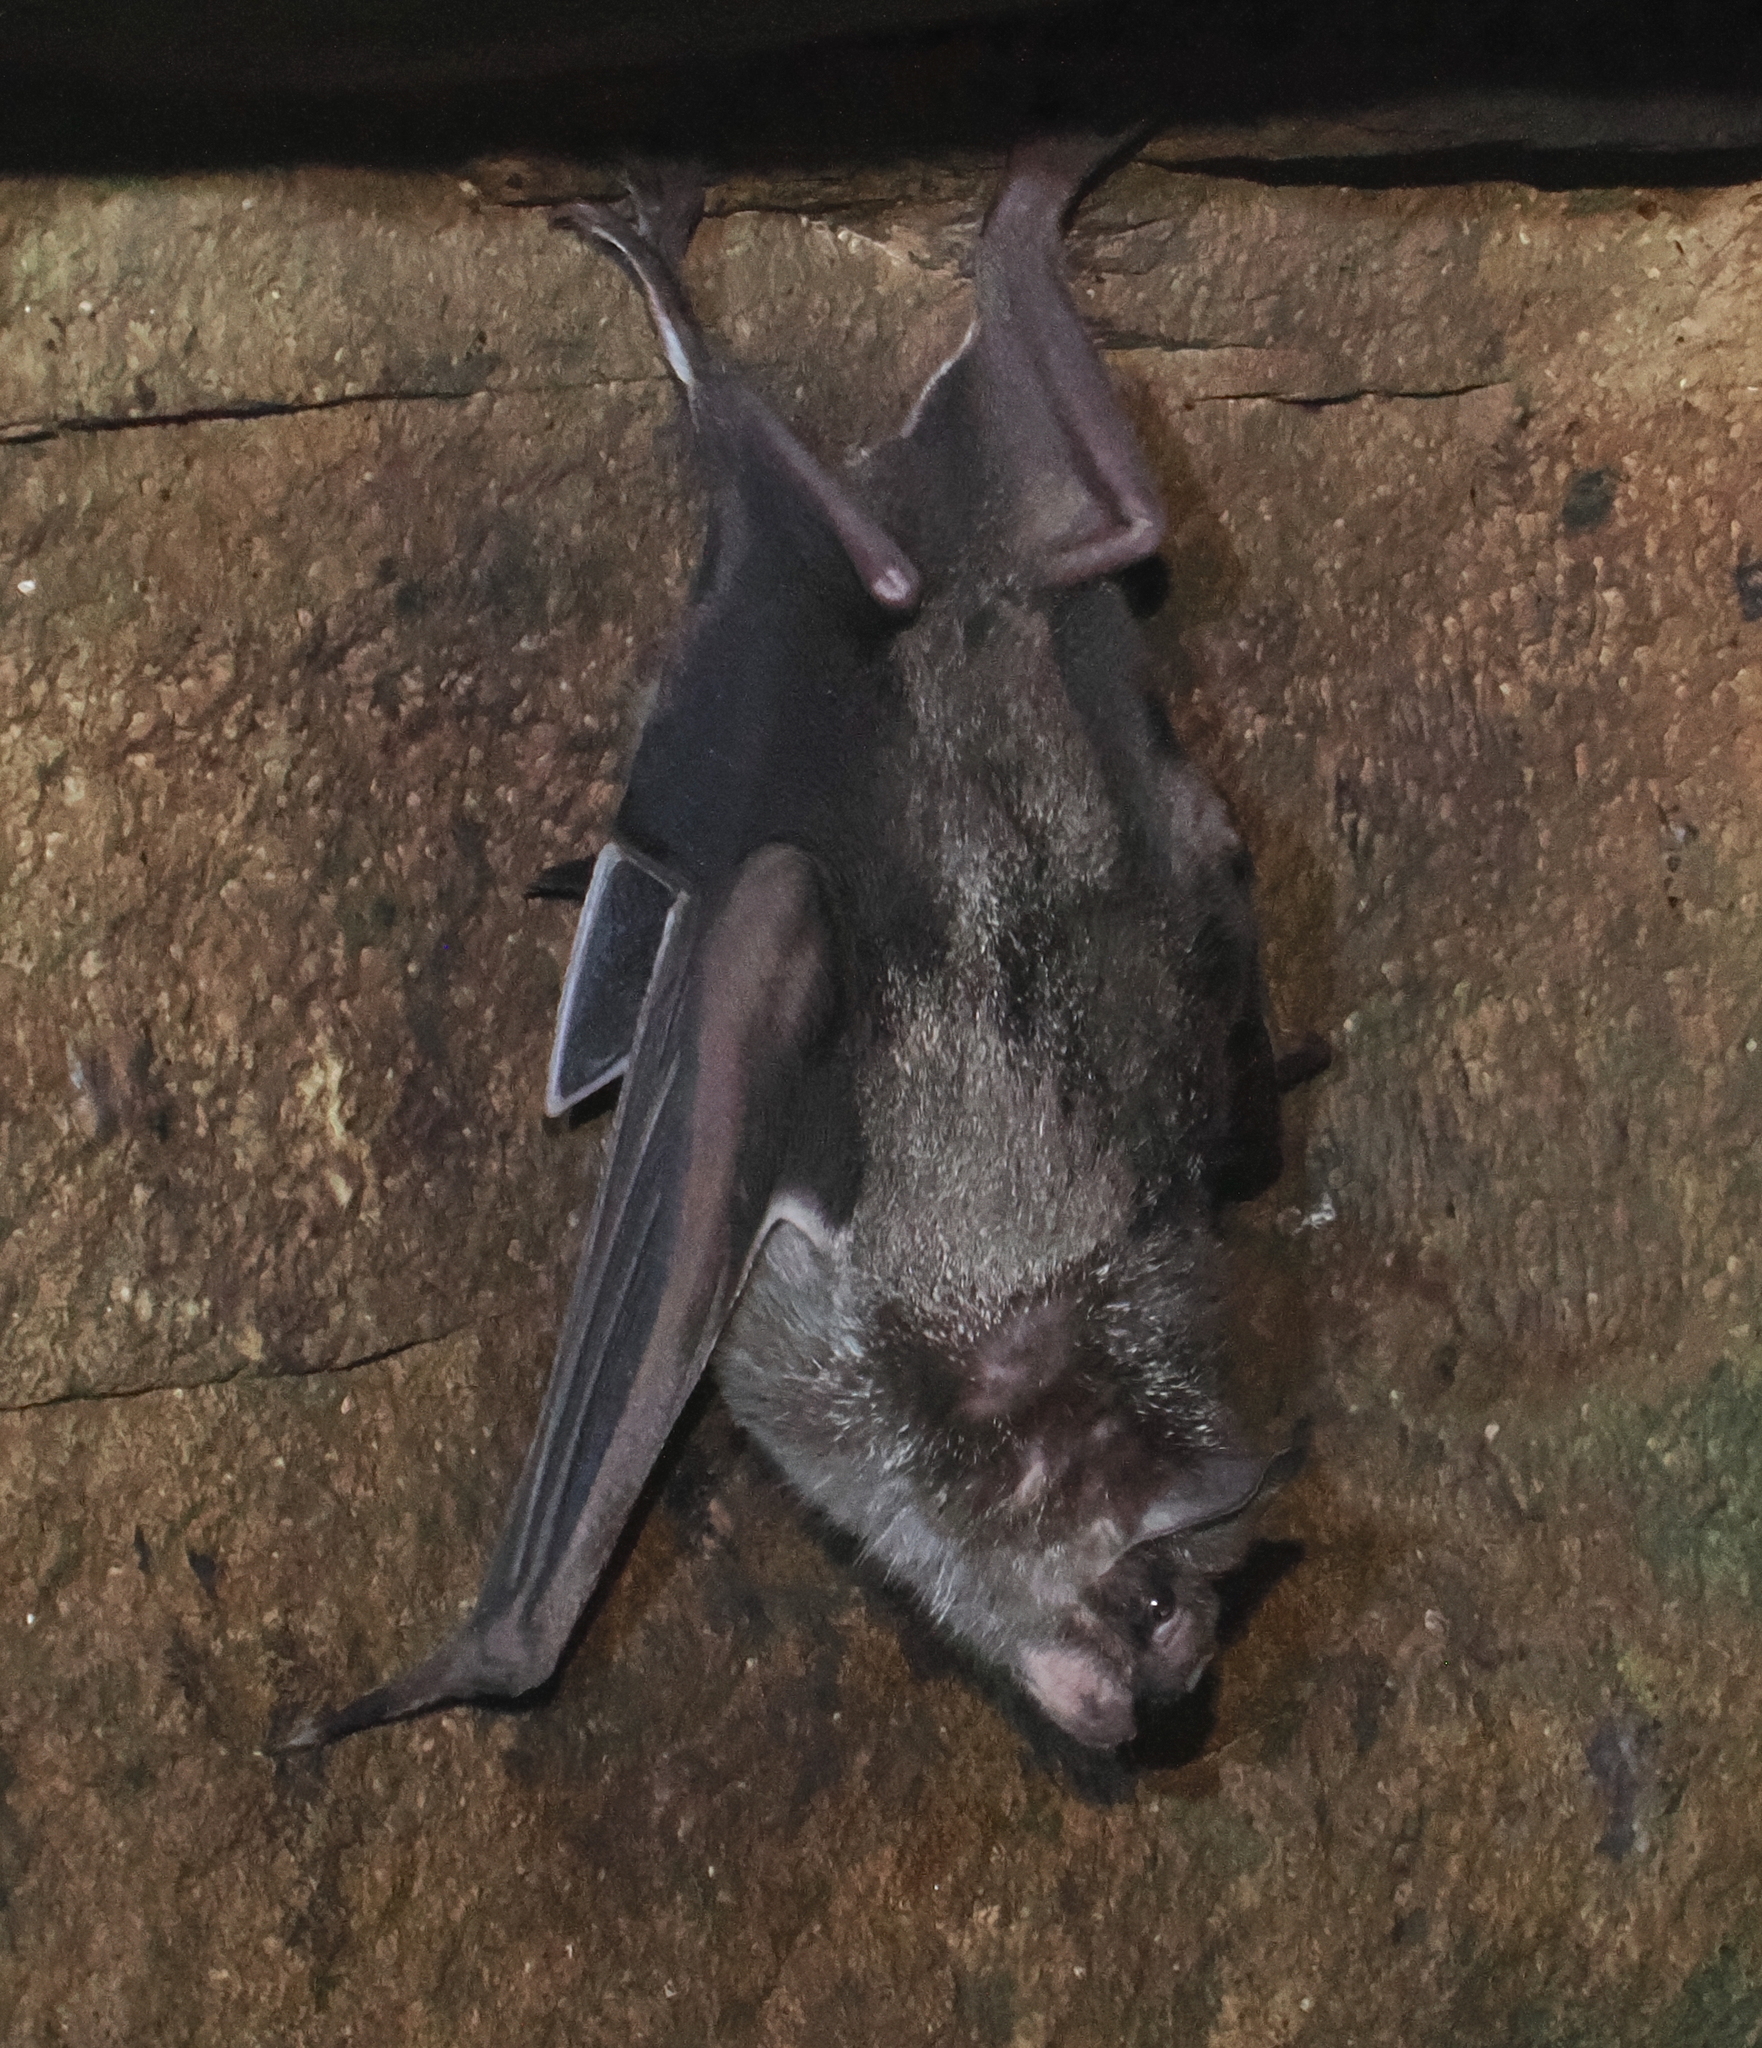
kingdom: Animalia
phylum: Chordata
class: Mammalia
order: Chiroptera
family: Phyllostomidae
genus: Desmodus
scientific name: Desmodus rotundus
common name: Common vampire bat
